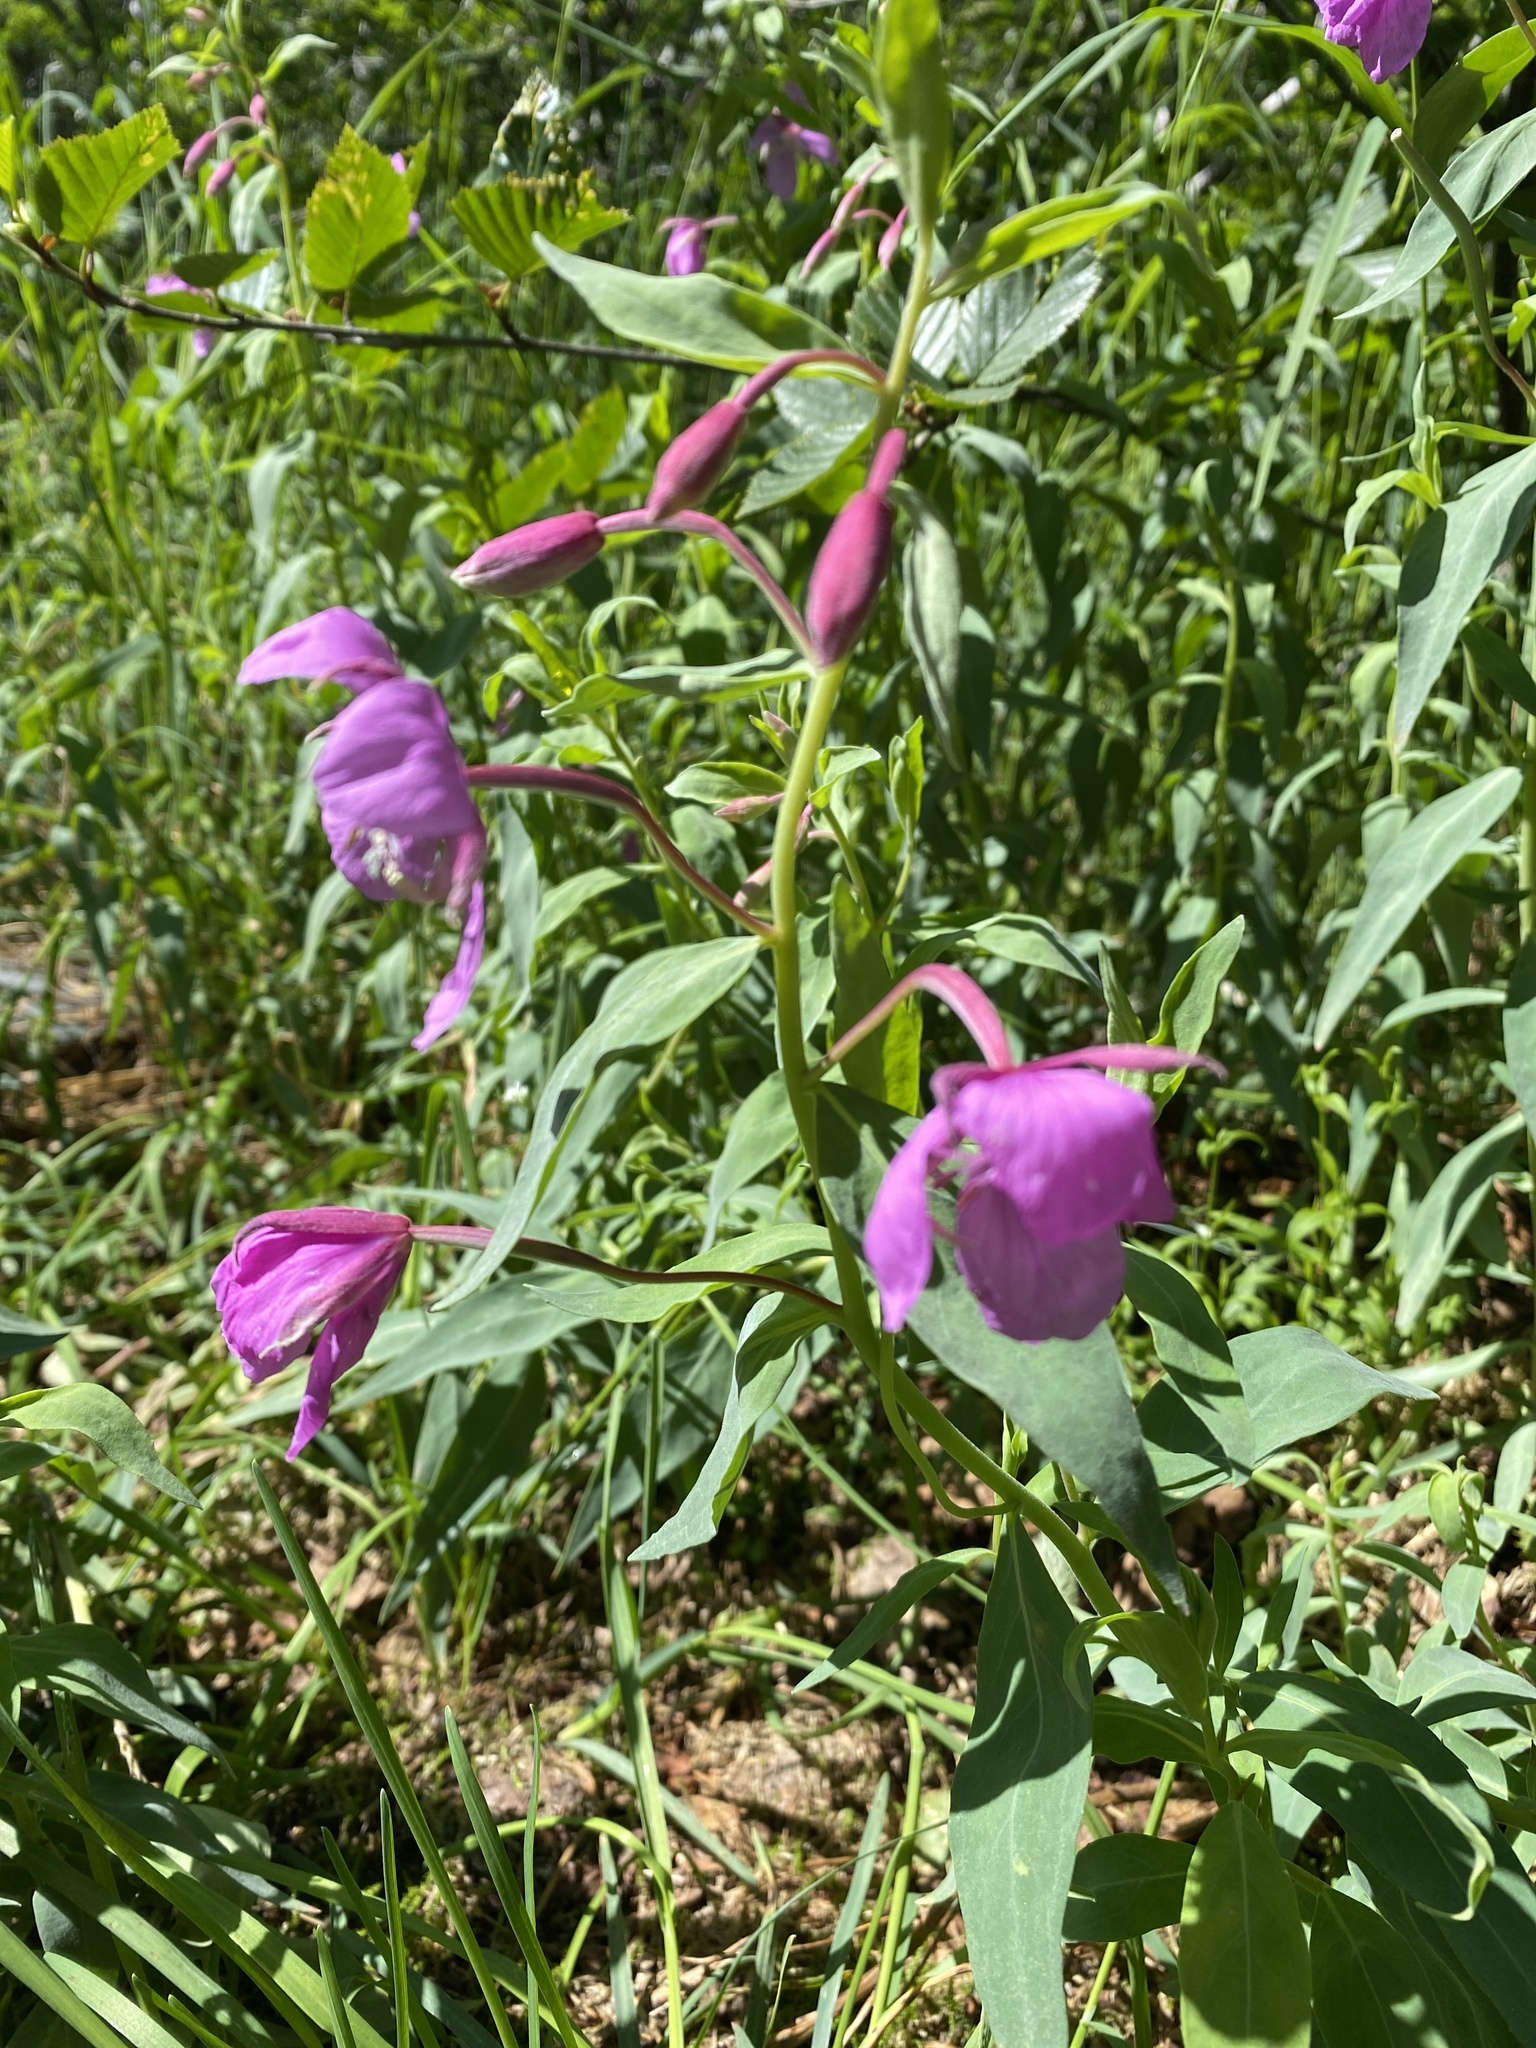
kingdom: Plantae
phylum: Tracheophyta
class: Magnoliopsida
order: Myrtales
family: Onagraceae
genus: Chamaenerion
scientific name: Chamaenerion latifolium
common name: Dwarf fireweed
